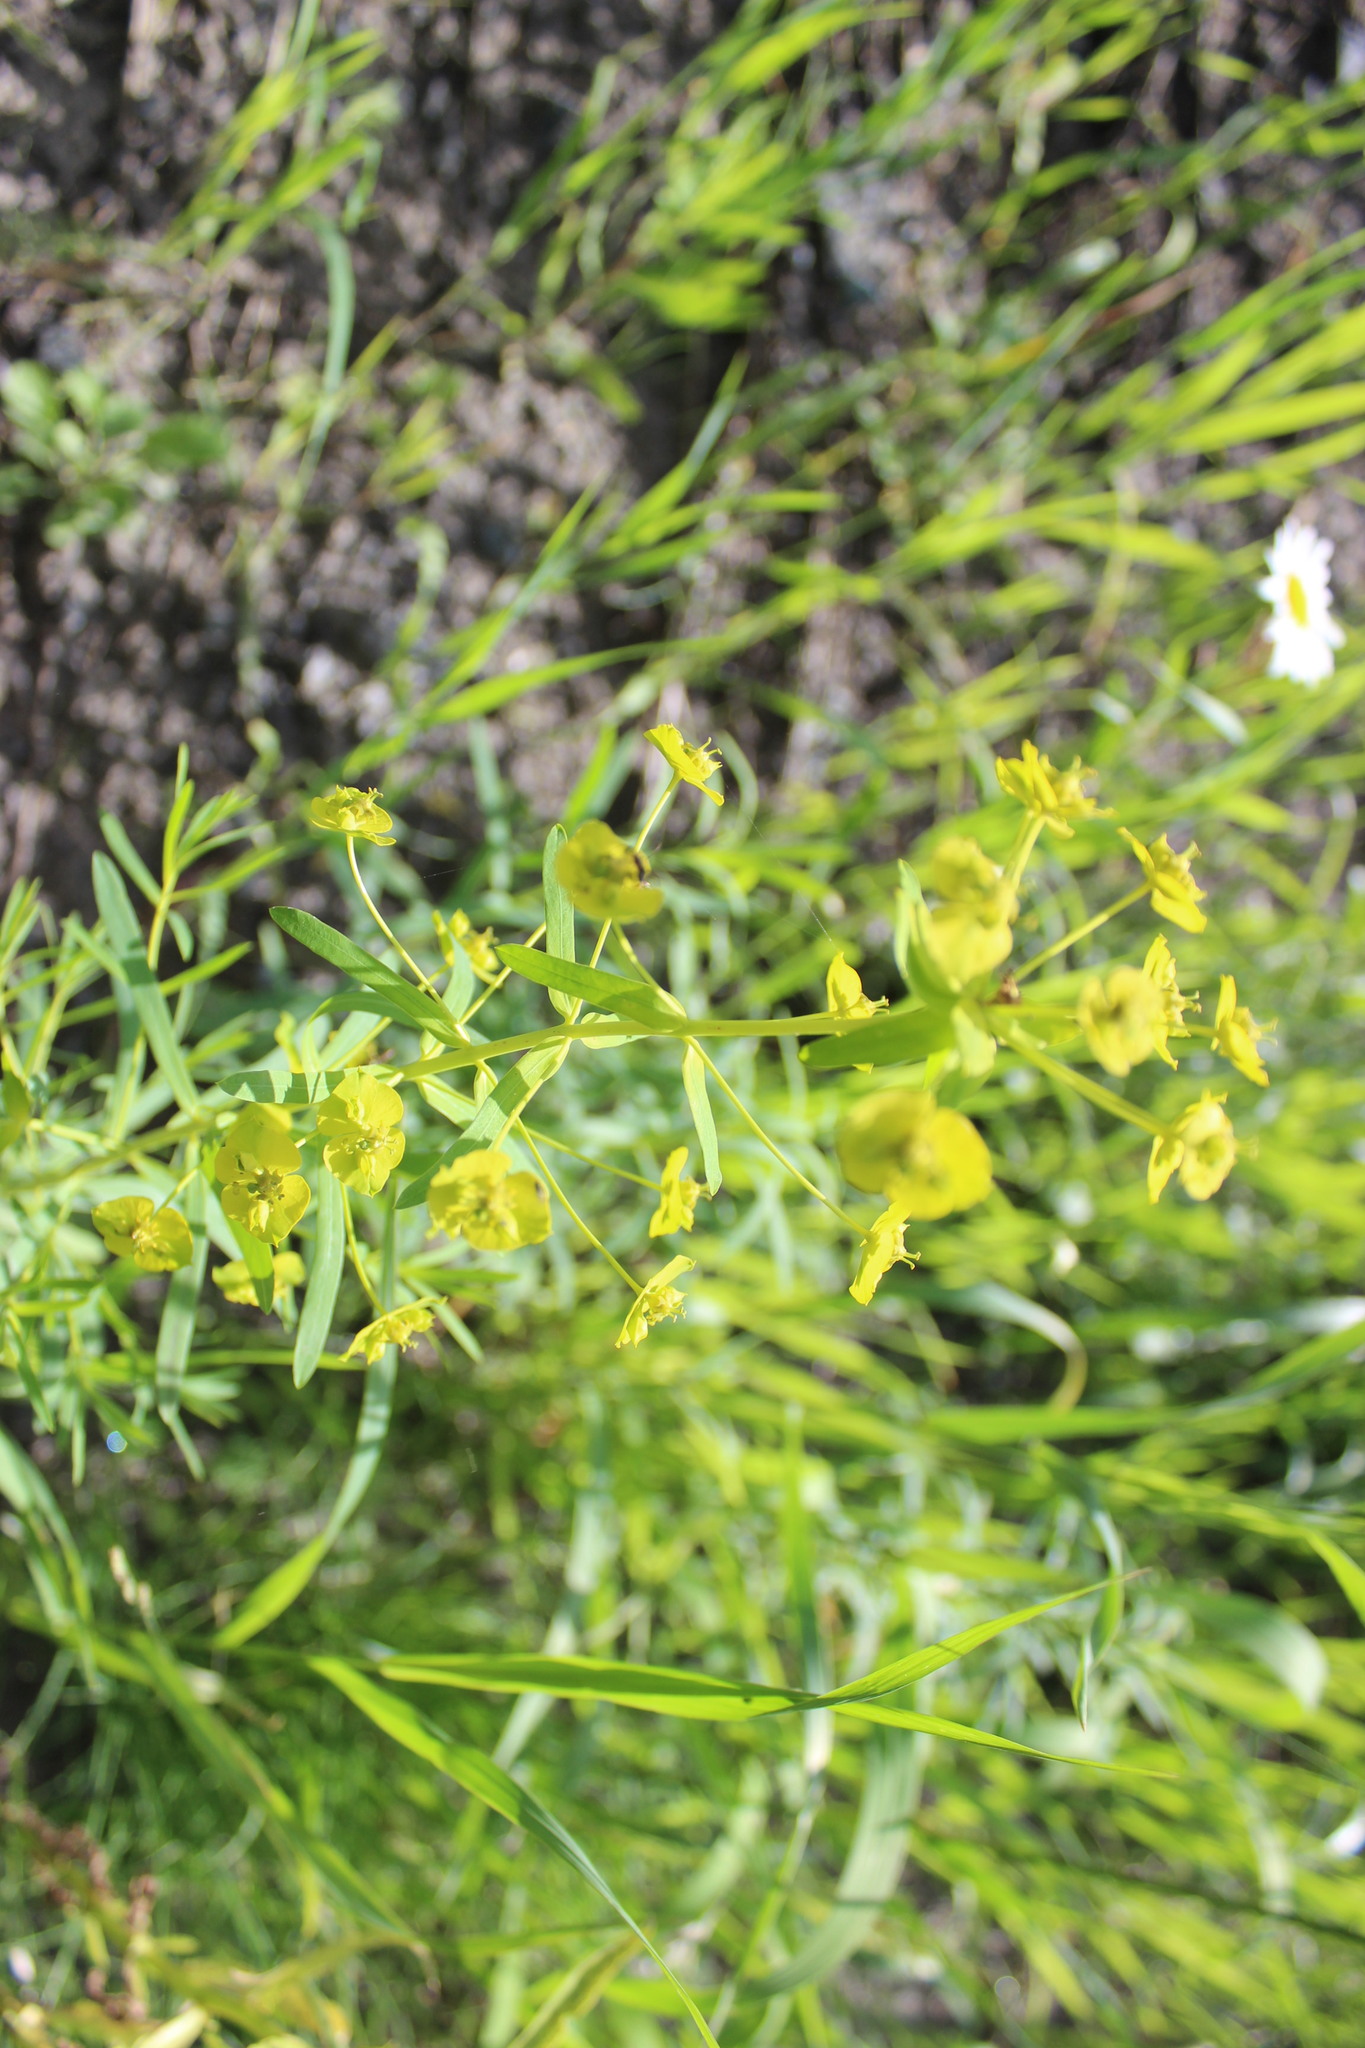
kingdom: Plantae
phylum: Tracheophyta
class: Magnoliopsida
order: Malpighiales
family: Euphorbiaceae
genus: Euphorbia
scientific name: Euphorbia virgata
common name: Leafy spurge
